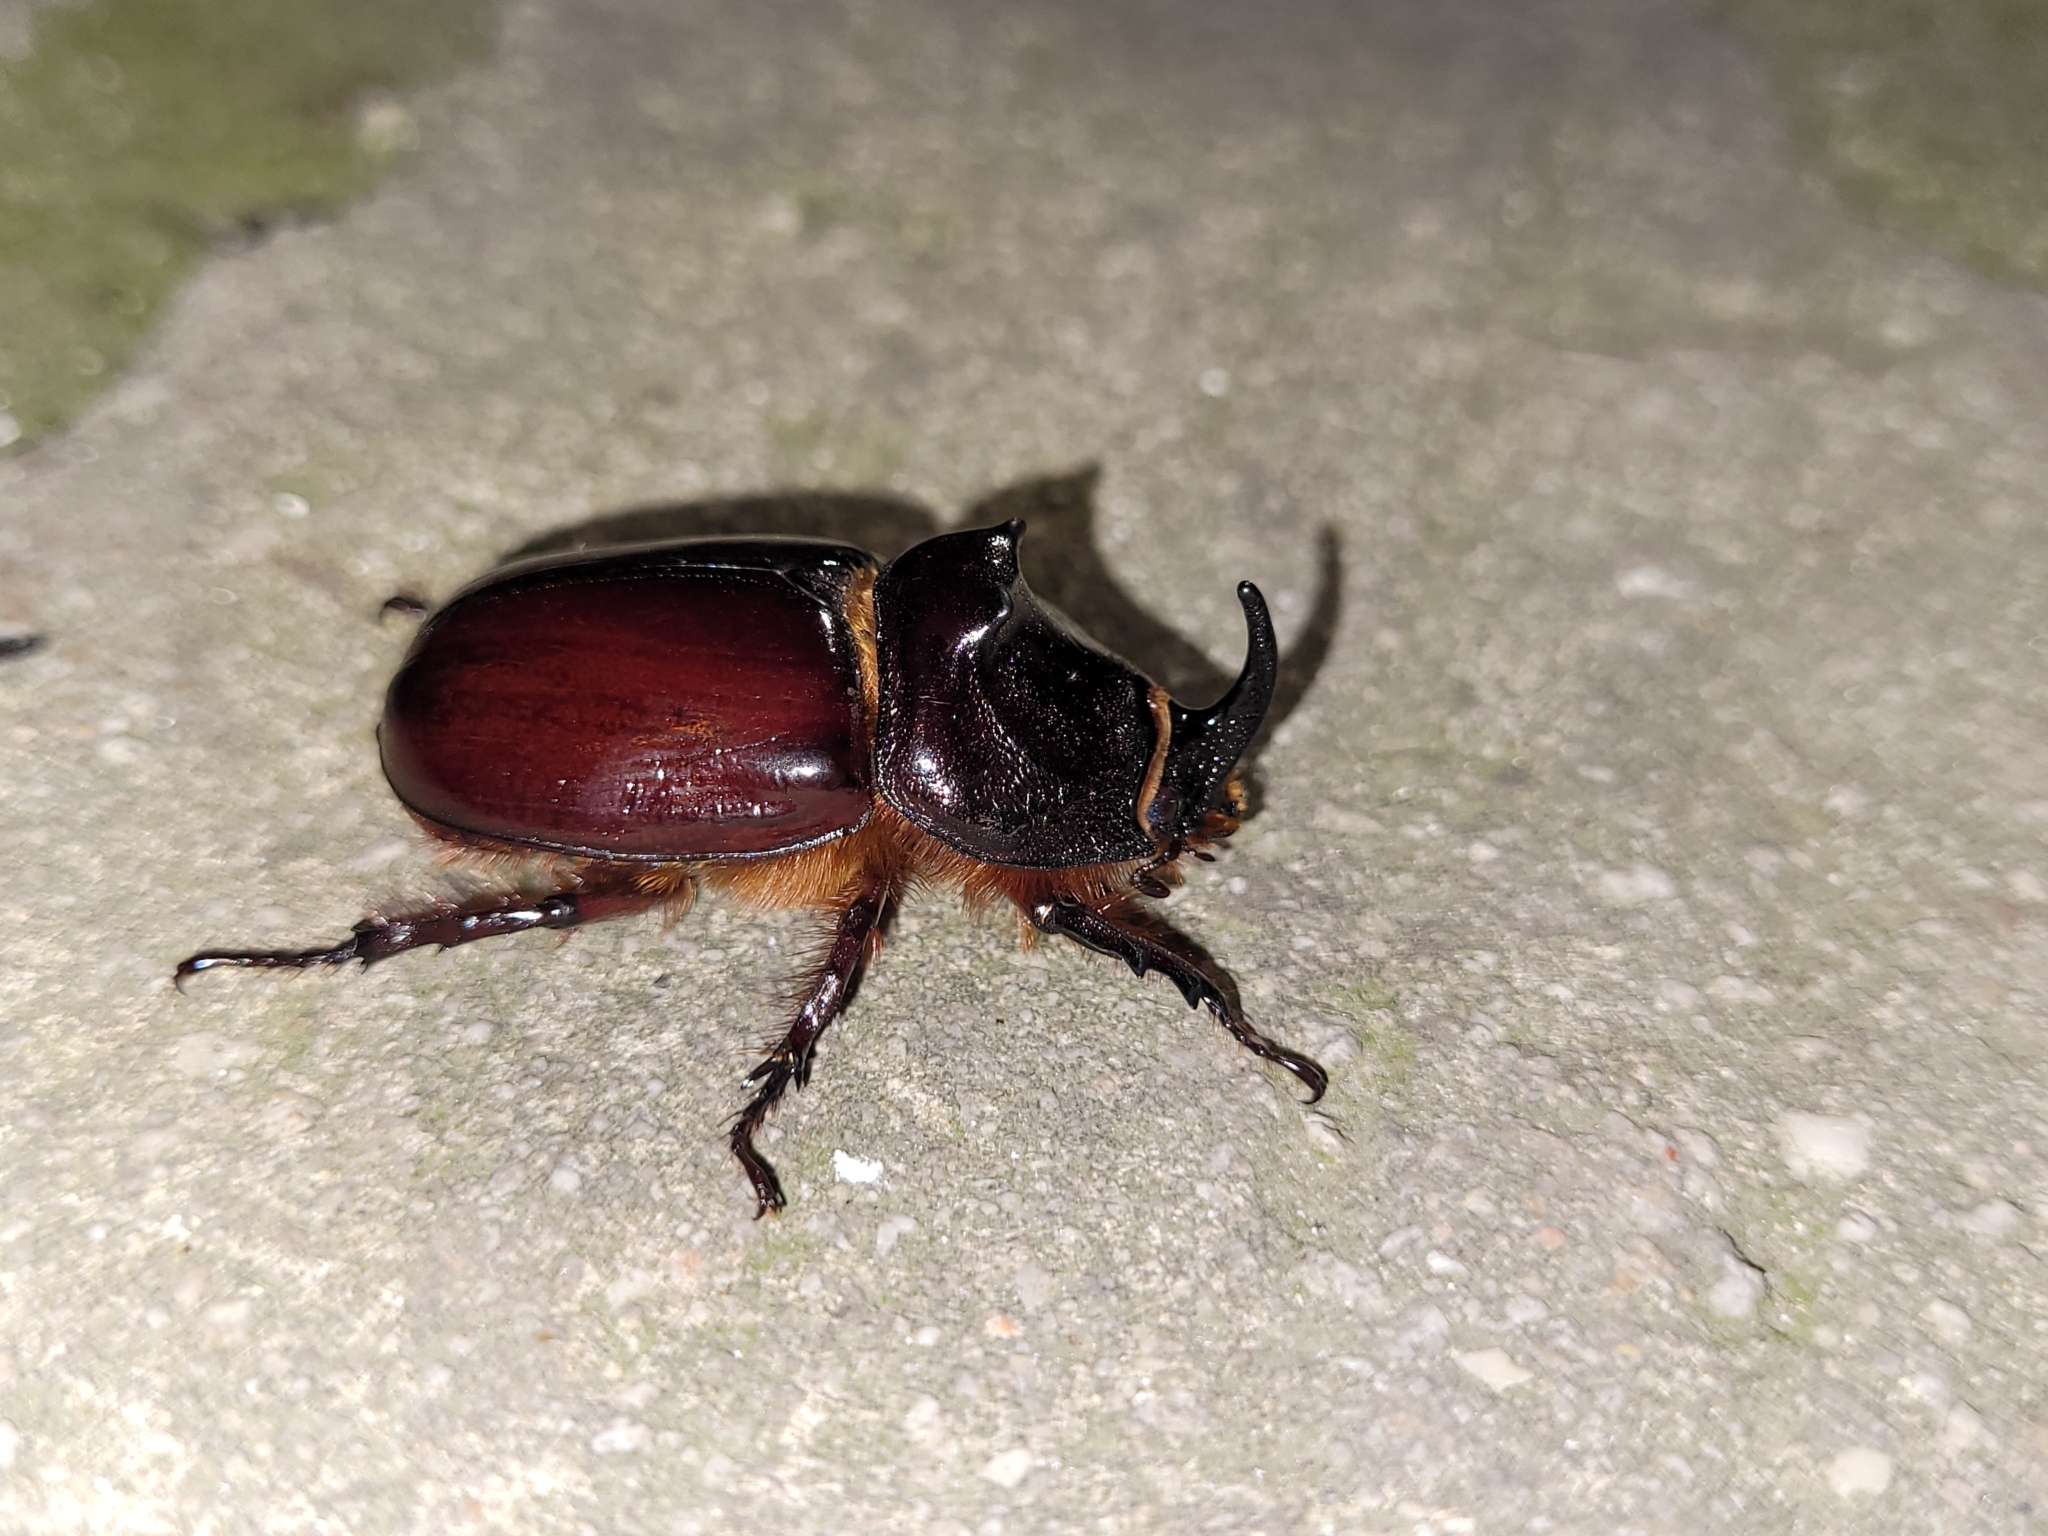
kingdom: Animalia
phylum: Arthropoda
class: Insecta
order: Coleoptera
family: Scarabaeidae
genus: Oryctes
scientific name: Oryctes nasicornis
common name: European rhinoceros beetle
